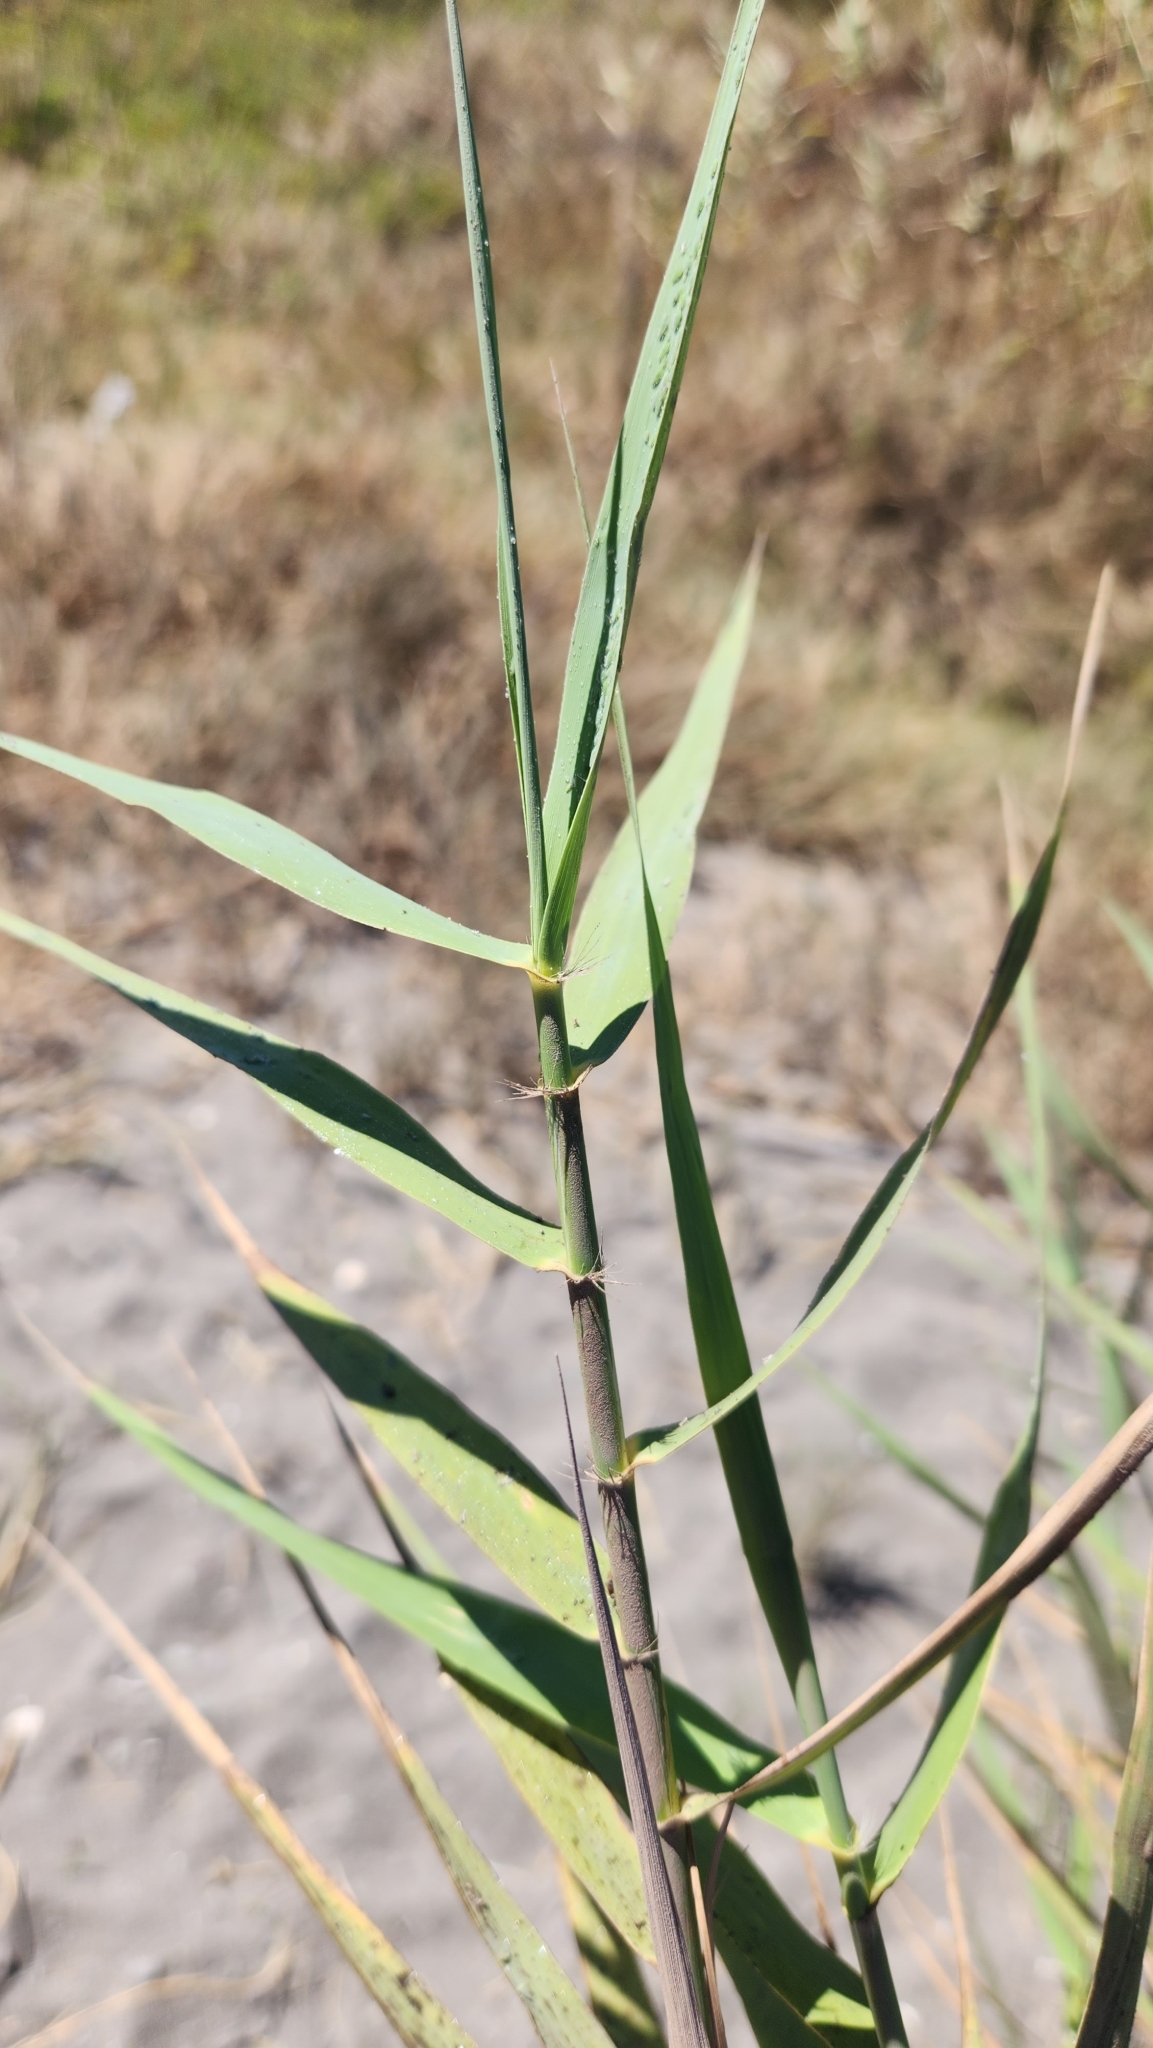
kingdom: Plantae
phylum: Tracheophyta
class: Liliopsida
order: Poales
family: Poaceae
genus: Arundo
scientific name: Arundo donax
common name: Giant reed
